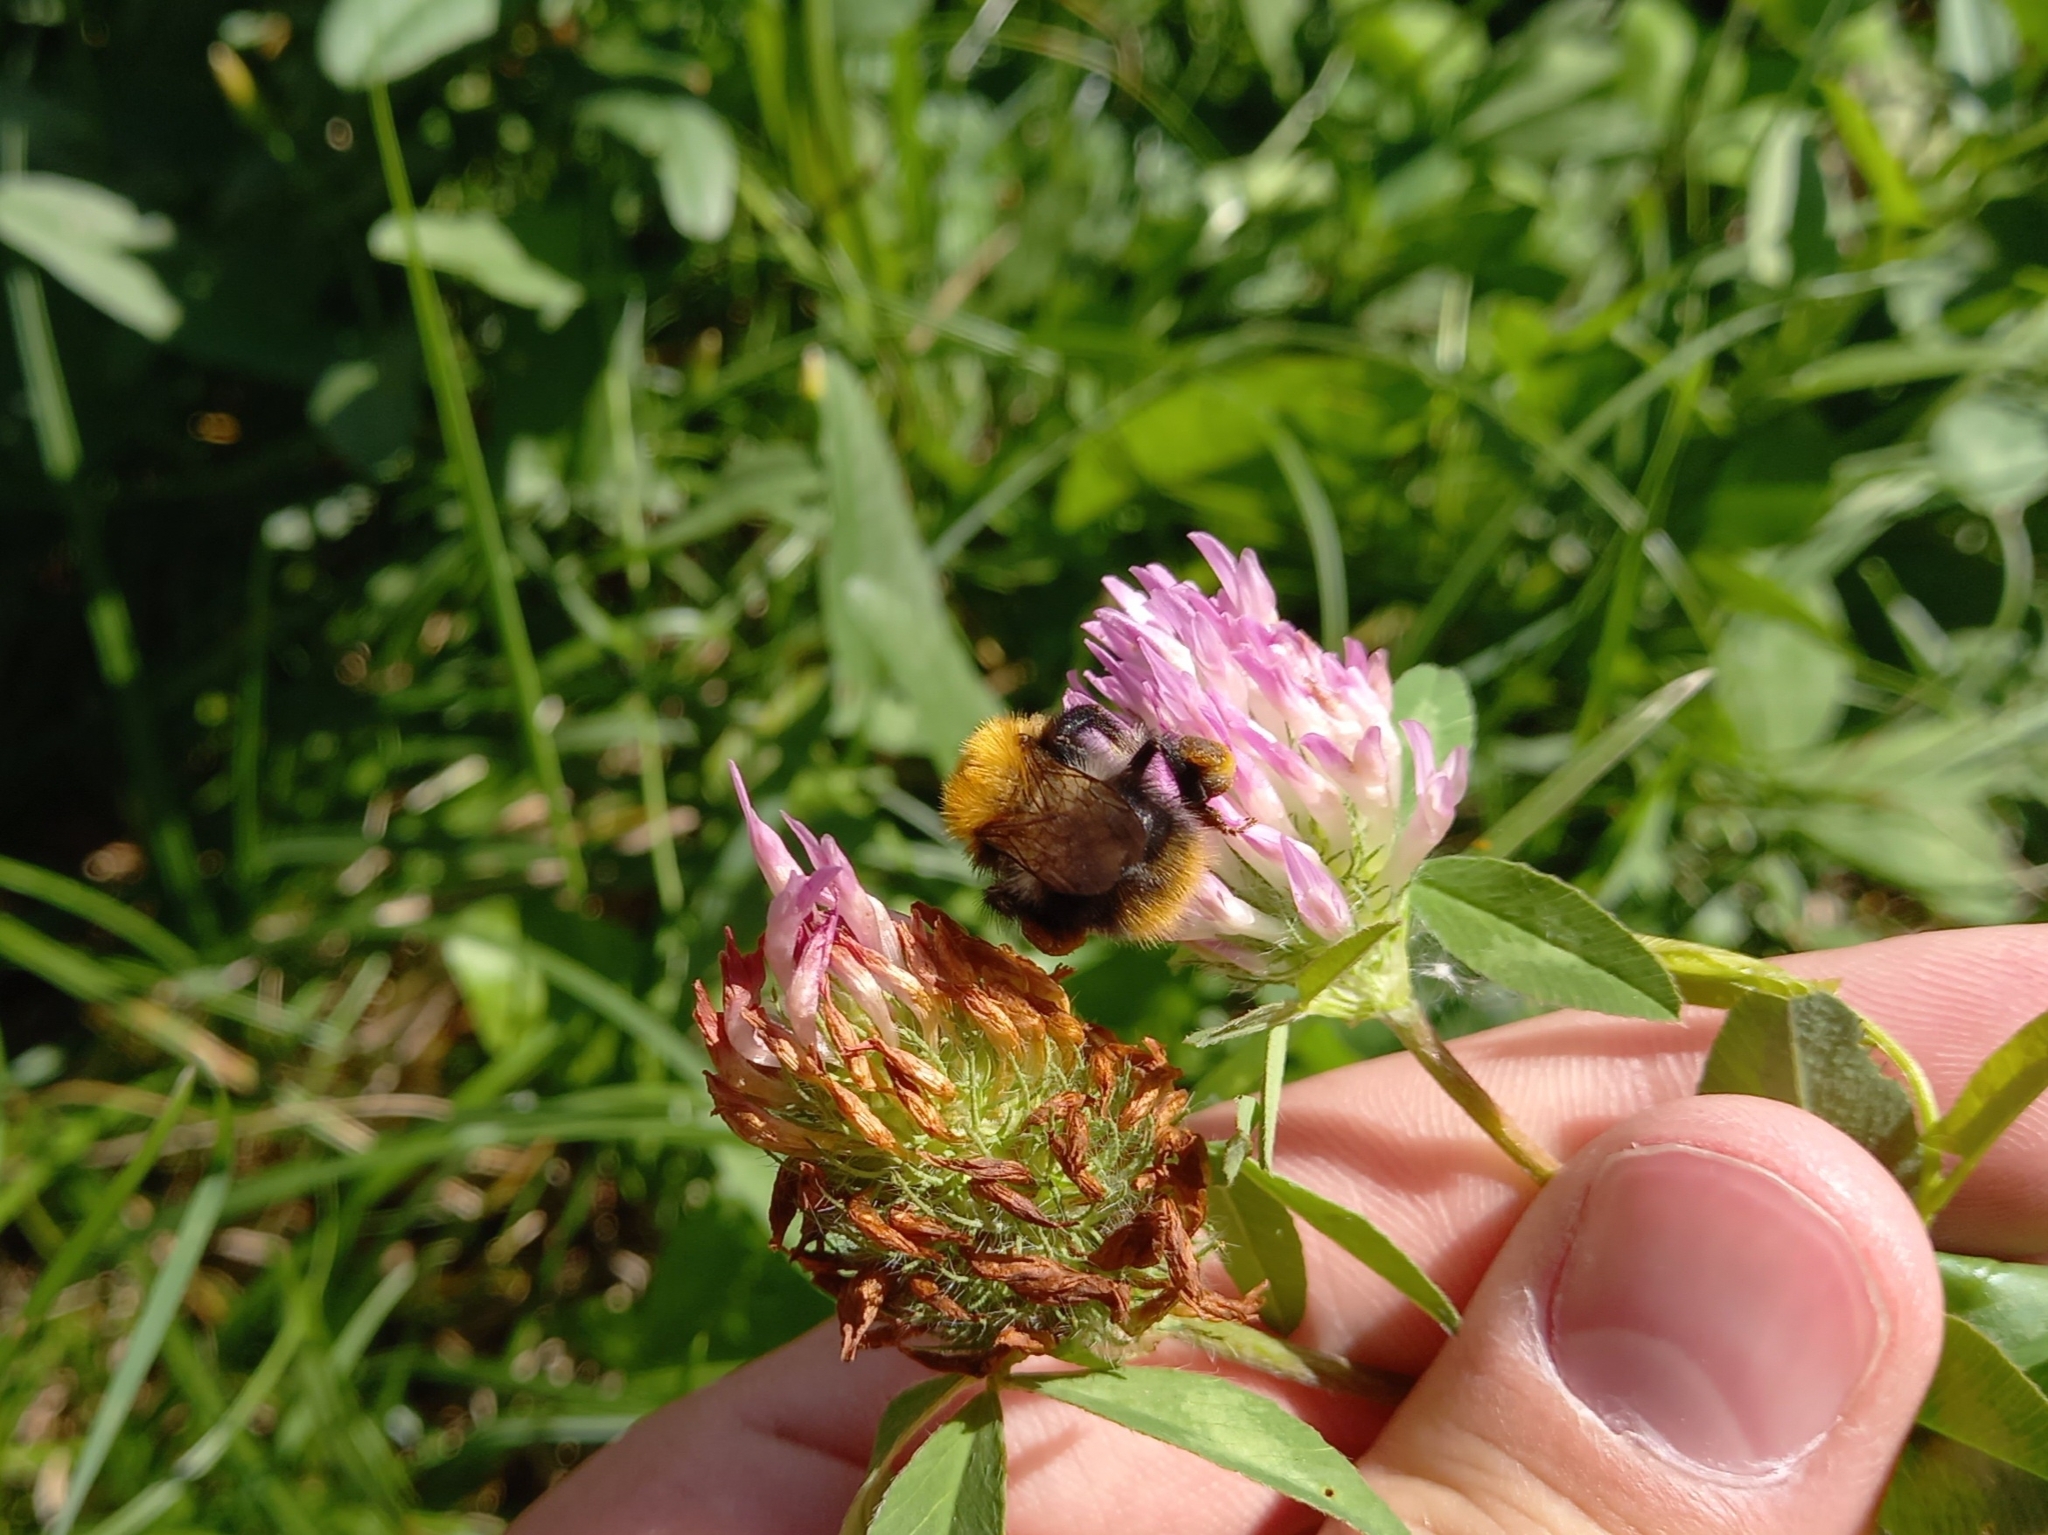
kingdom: Animalia
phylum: Arthropoda
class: Insecta
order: Hymenoptera
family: Apidae
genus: Bombus
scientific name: Bombus pascuorum
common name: Common carder bee
